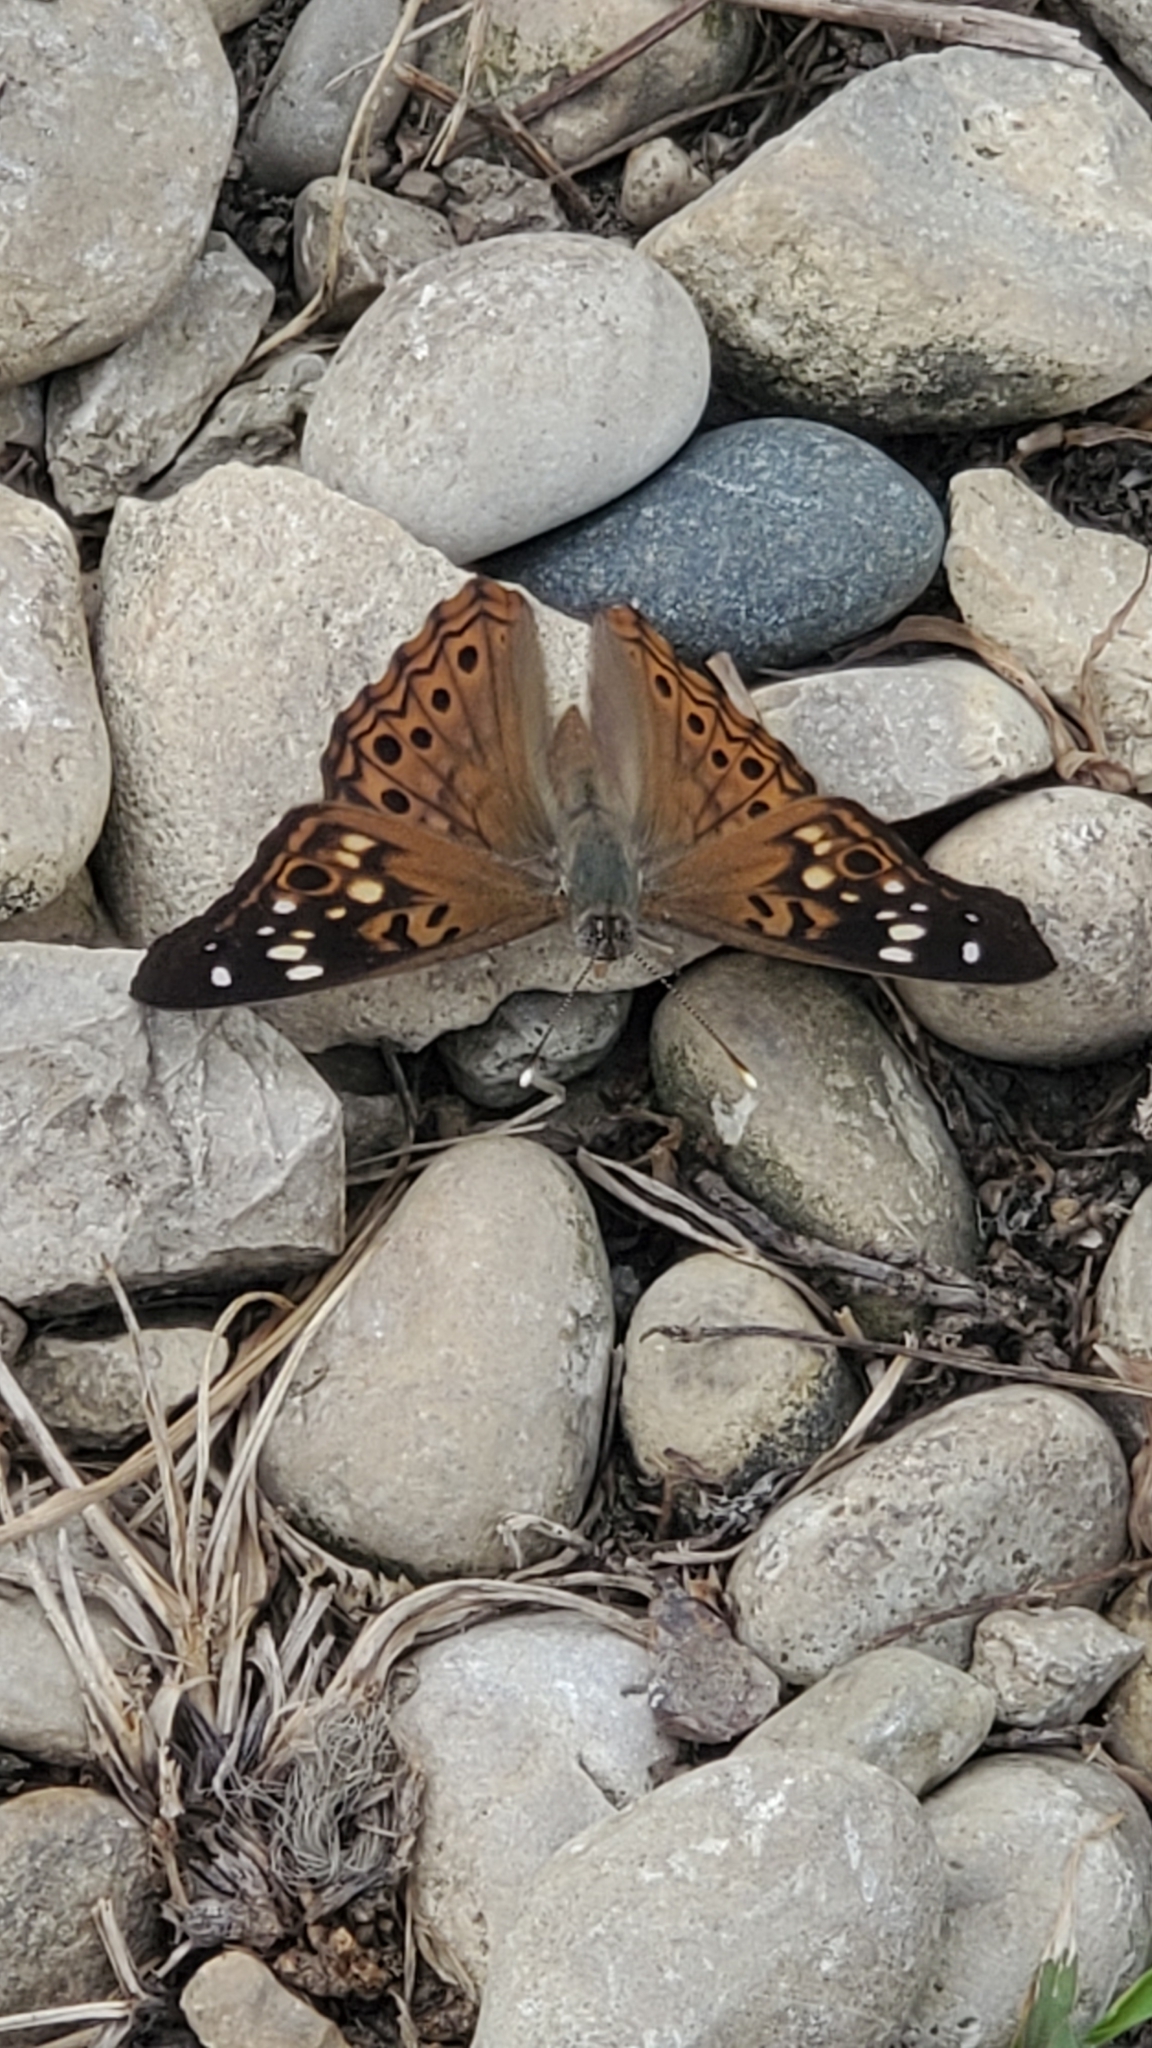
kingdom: Animalia
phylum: Arthropoda
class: Insecta
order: Lepidoptera
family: Nymphalidae
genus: Asterocampa
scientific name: Asterocampa celtis
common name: Hackberry emperor
